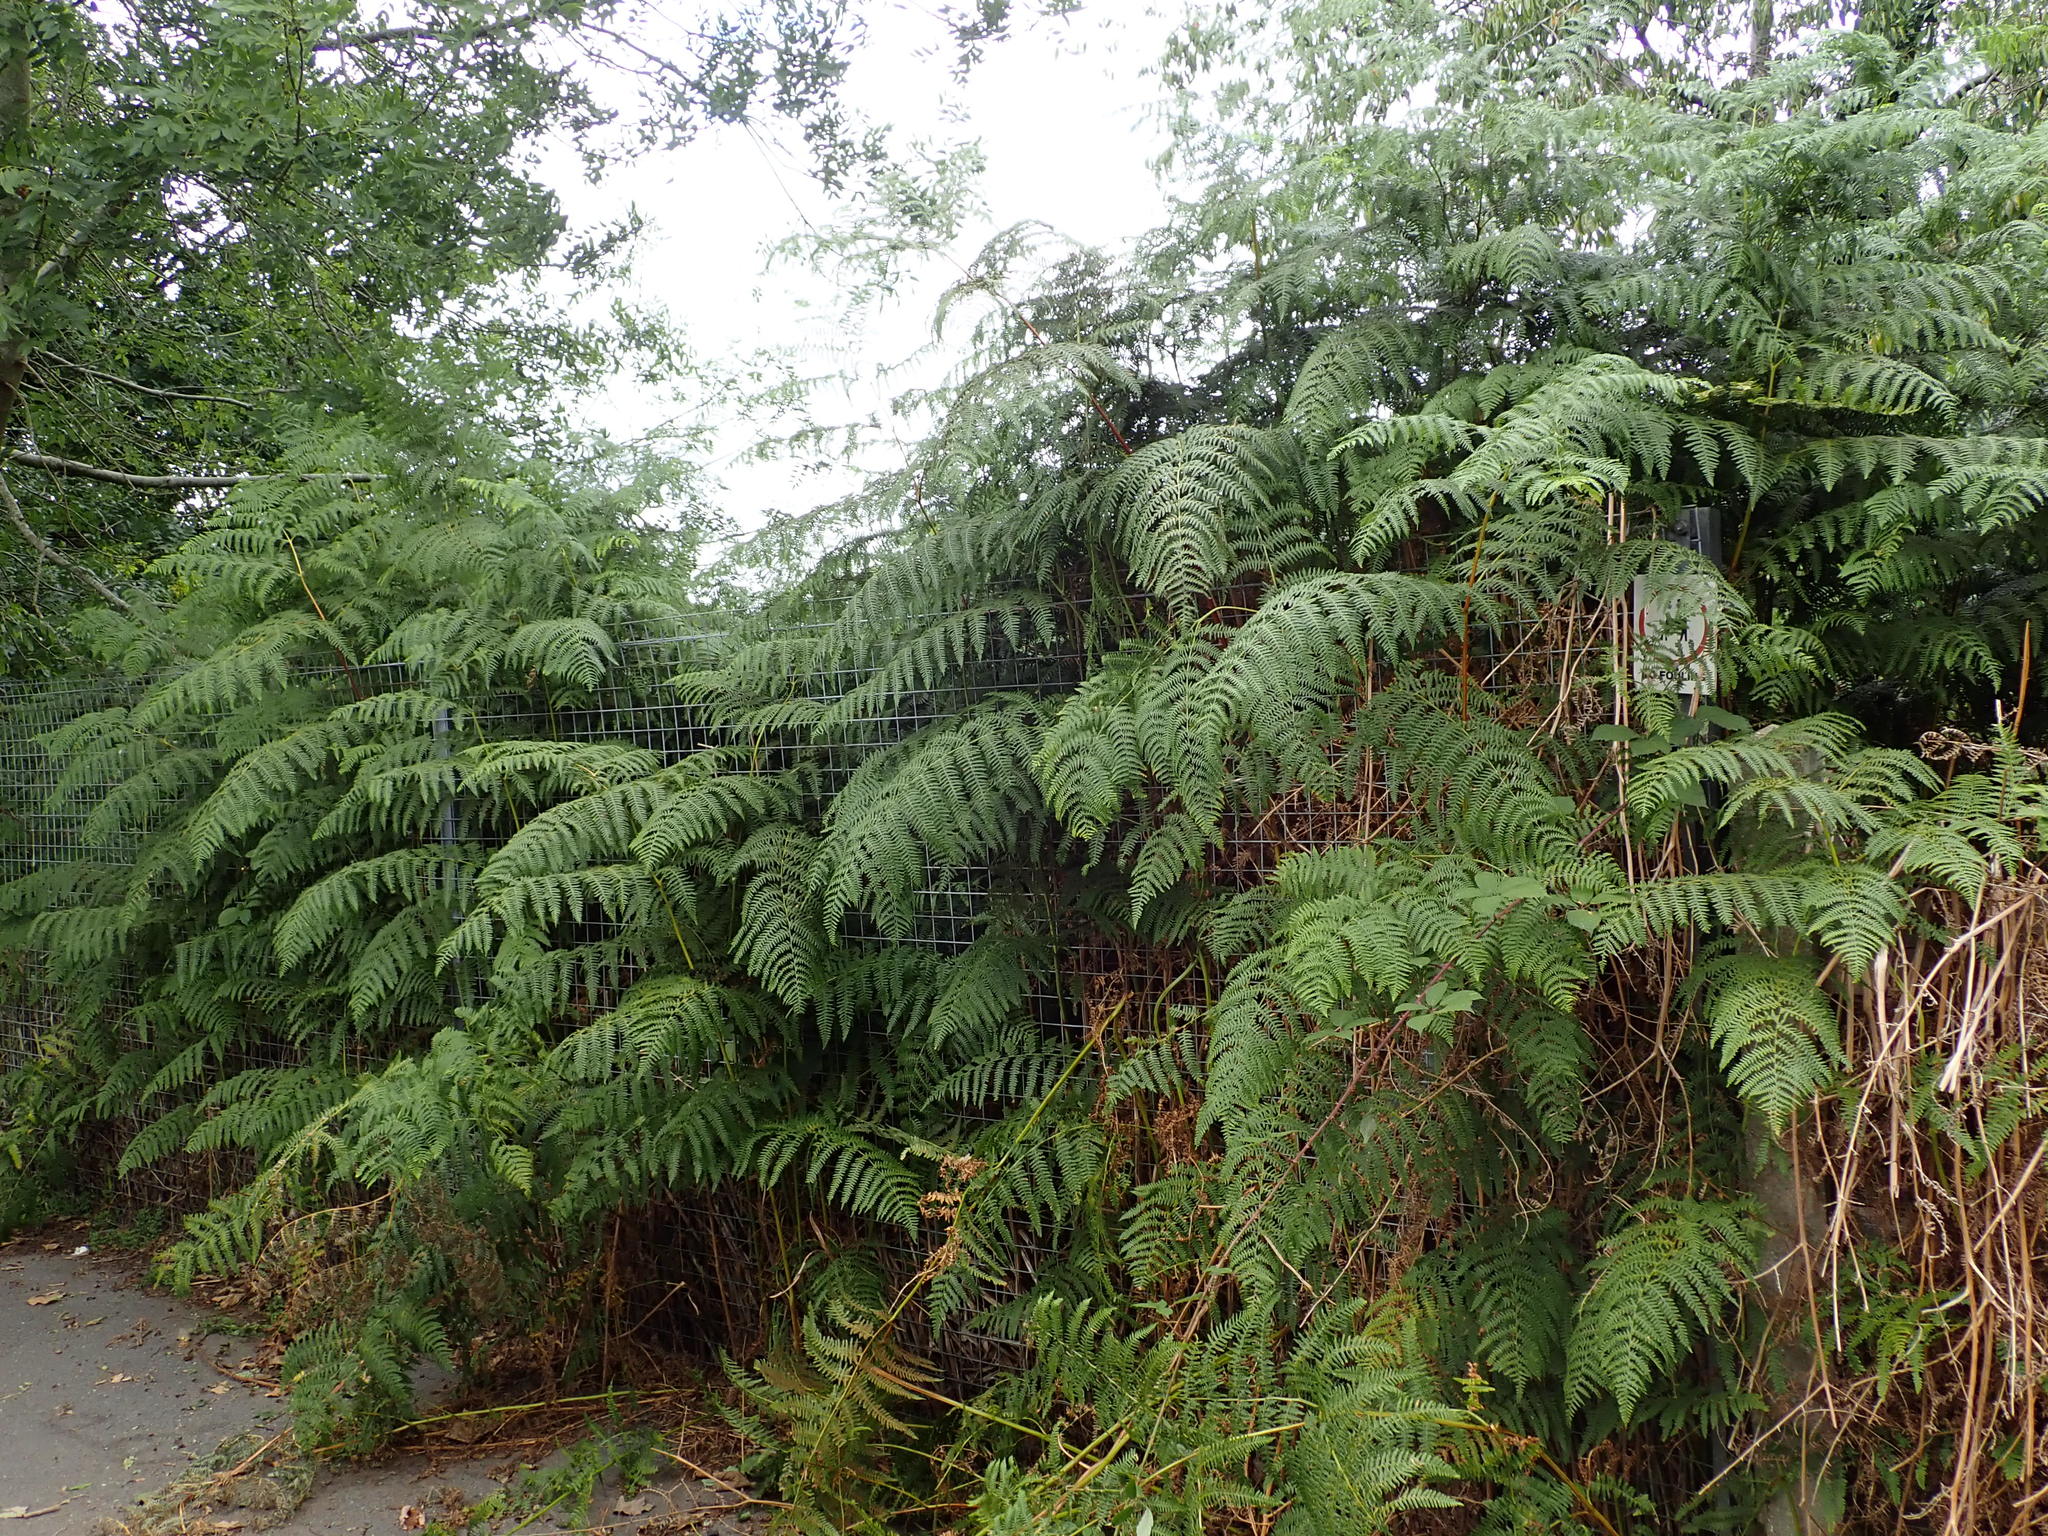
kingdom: Plantae
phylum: Tracheophyta
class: Polypodiopsida
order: Polypodiales
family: Dennstaedtiaceae
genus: Pteridium
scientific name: Pteridium aquilinum
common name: Bracken
